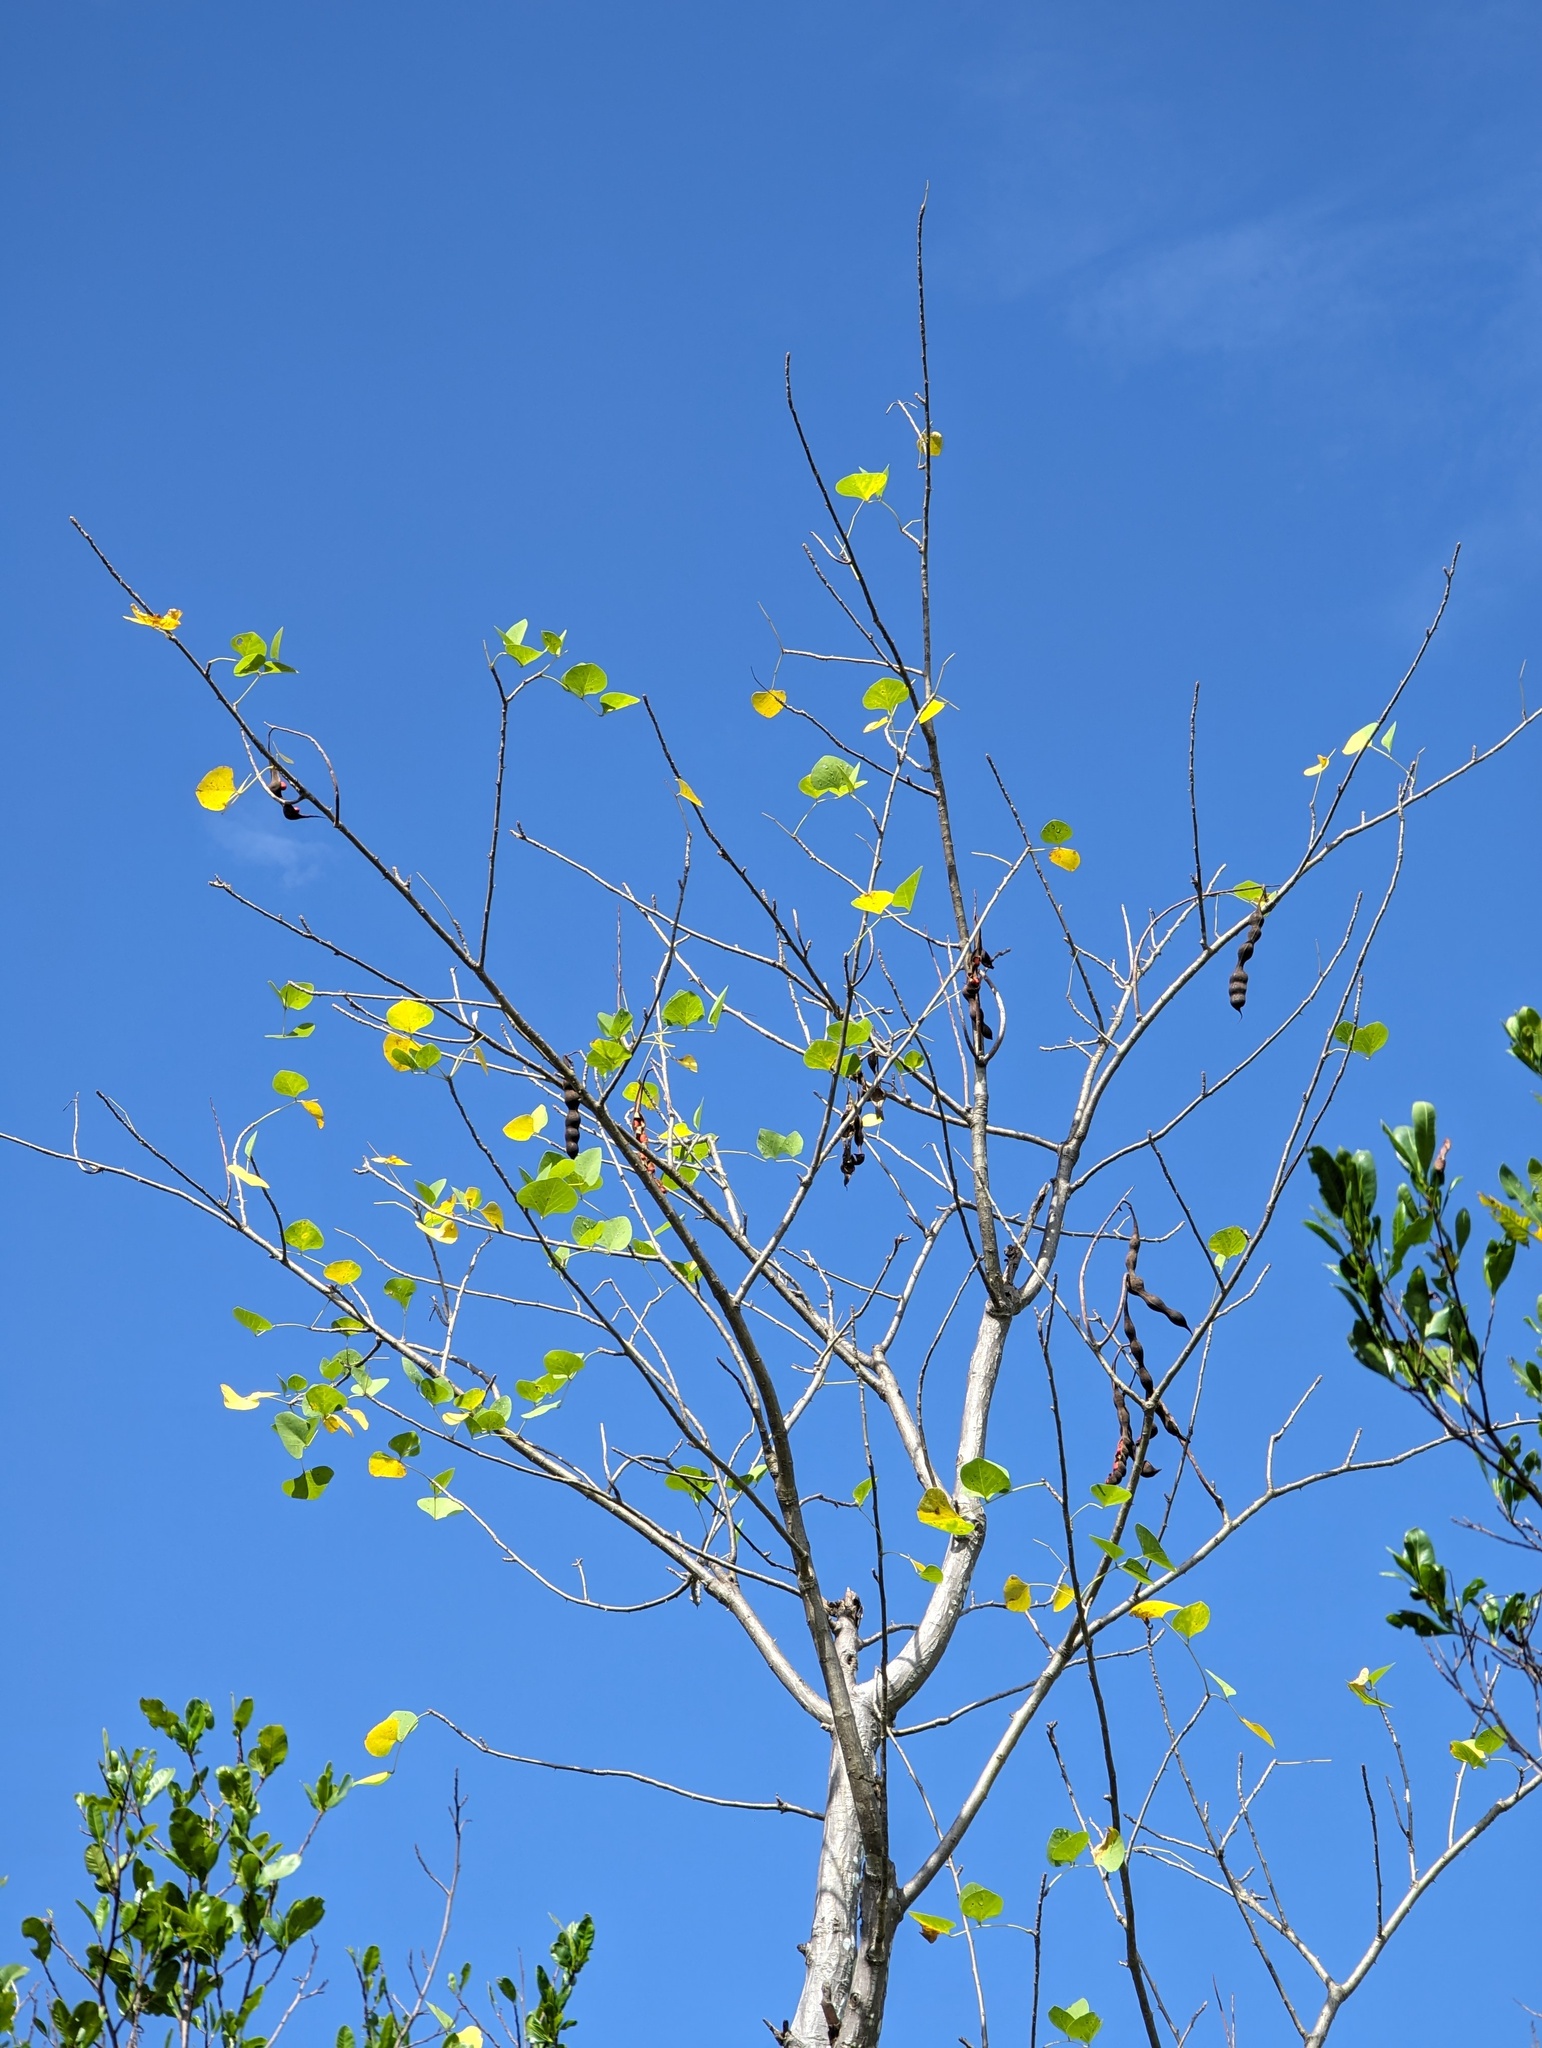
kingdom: Plantae
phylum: Tracheophyta
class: Magnoliopsida
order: Fabales
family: Fabaceae
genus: Erythrina
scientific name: Erythrina flabelliformis
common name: Chilicote
